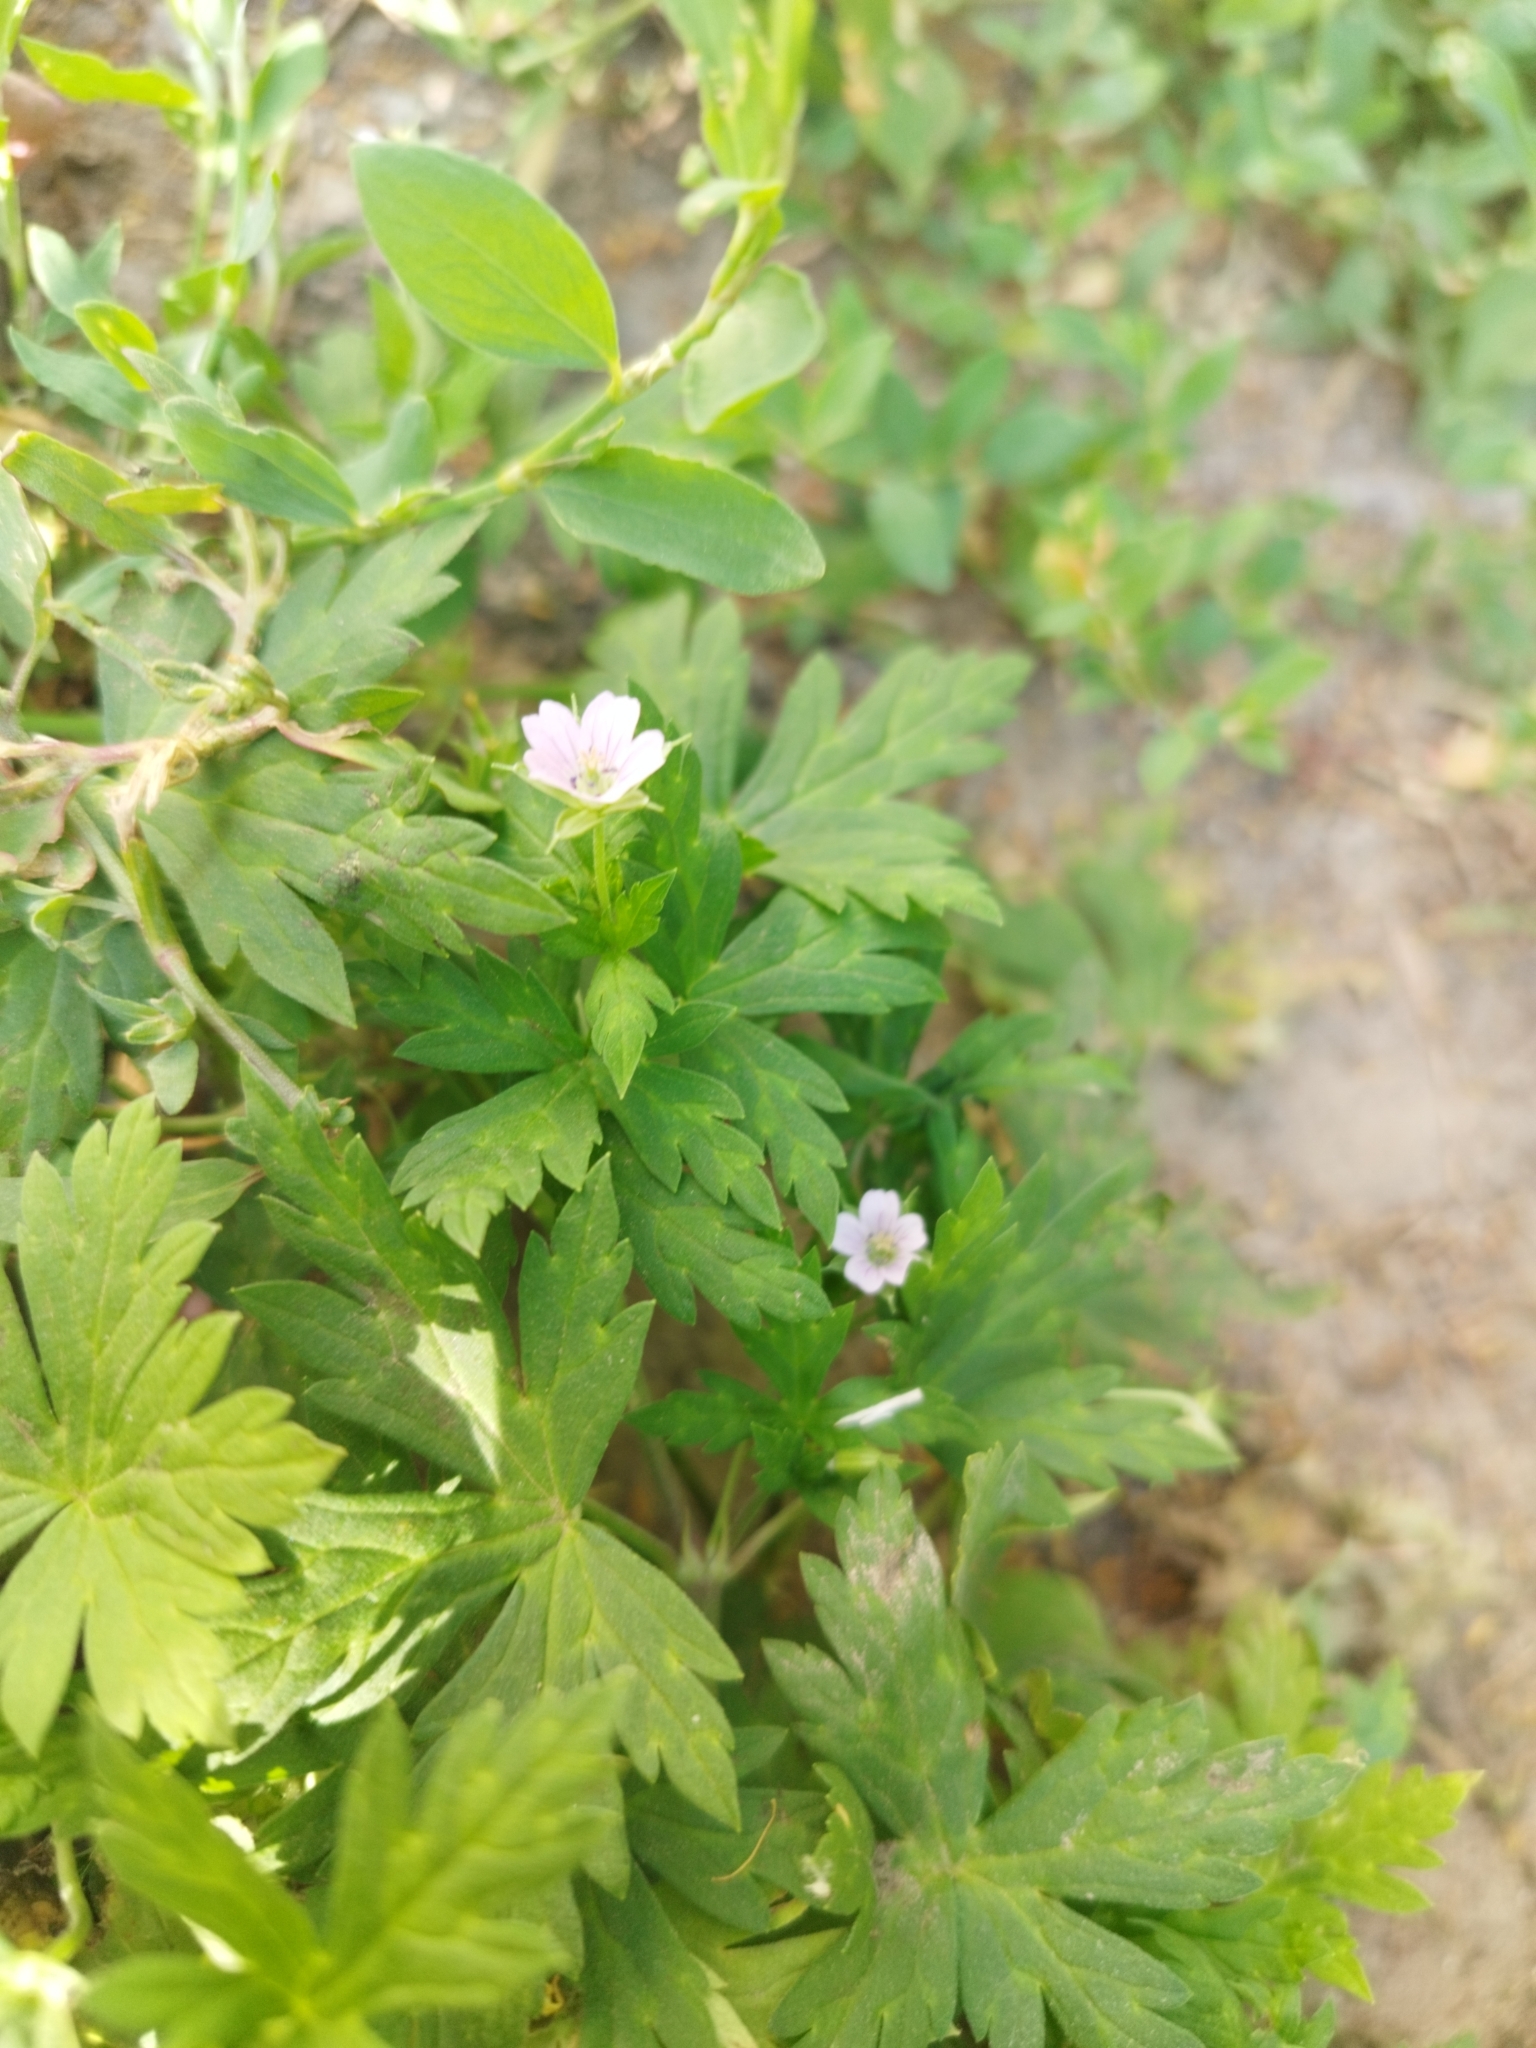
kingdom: Plantae
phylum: Tracheophyta
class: Magnoliopsida
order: Geraniales
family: Geraniaceae
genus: Geranium
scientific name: Geranium sibiricum
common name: Siberian crane's-bill
